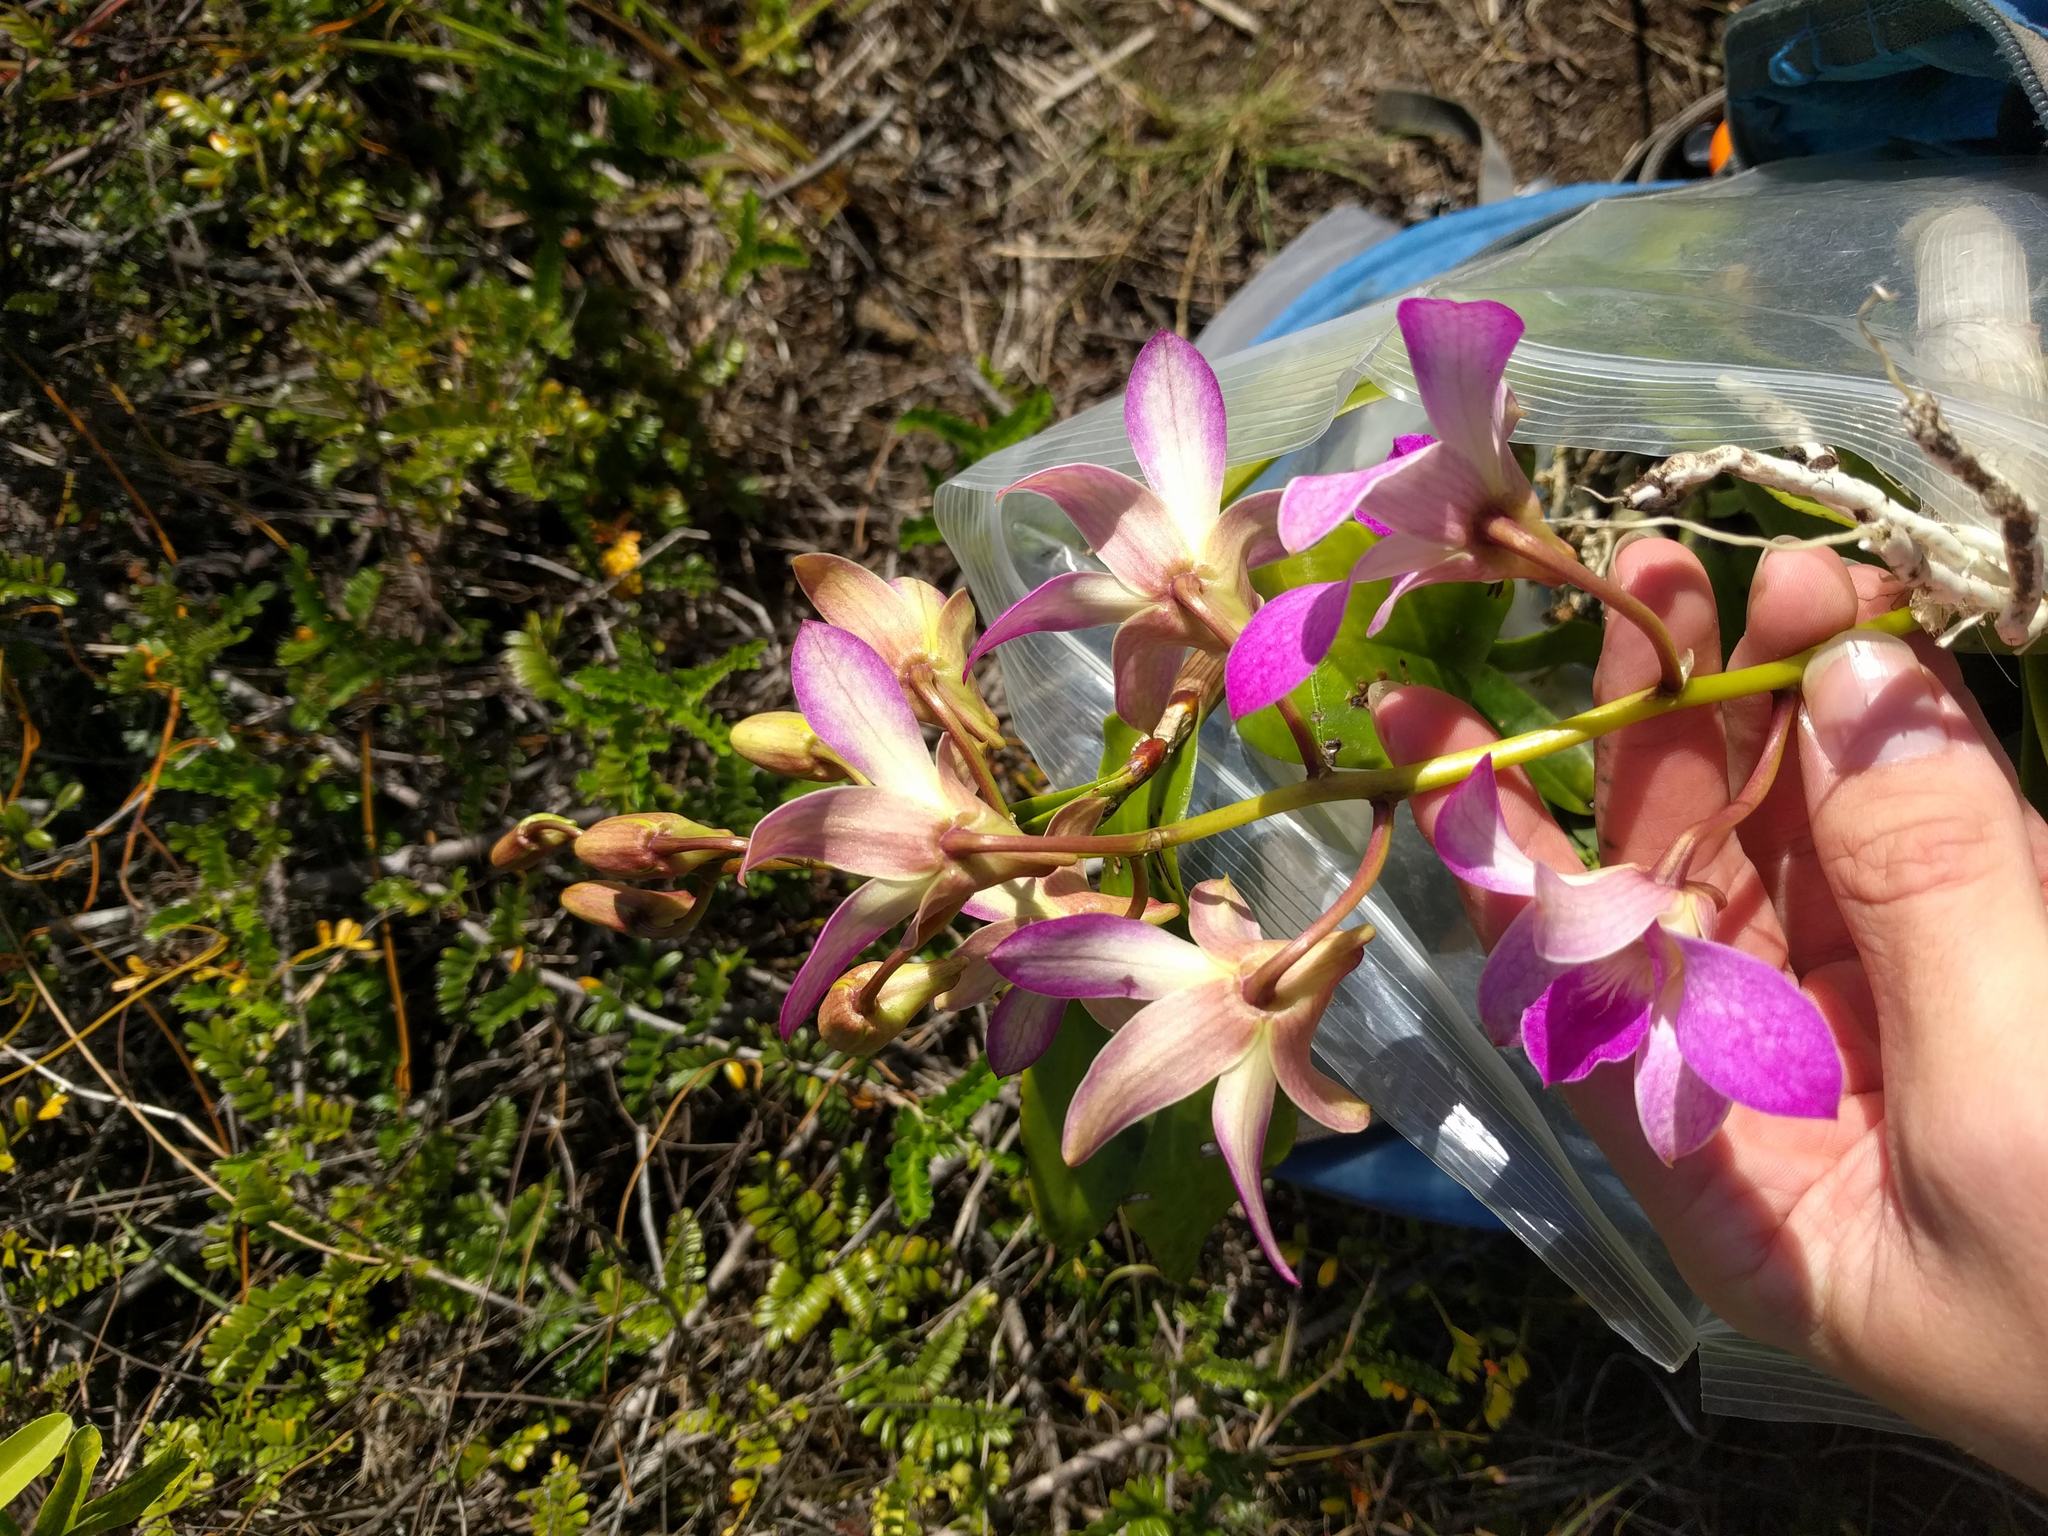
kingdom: Plantae
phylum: Tracheophyta
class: Liliopsida
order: Asparagales
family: Orchidaceae
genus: Dendrobium
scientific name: Dendrobium
